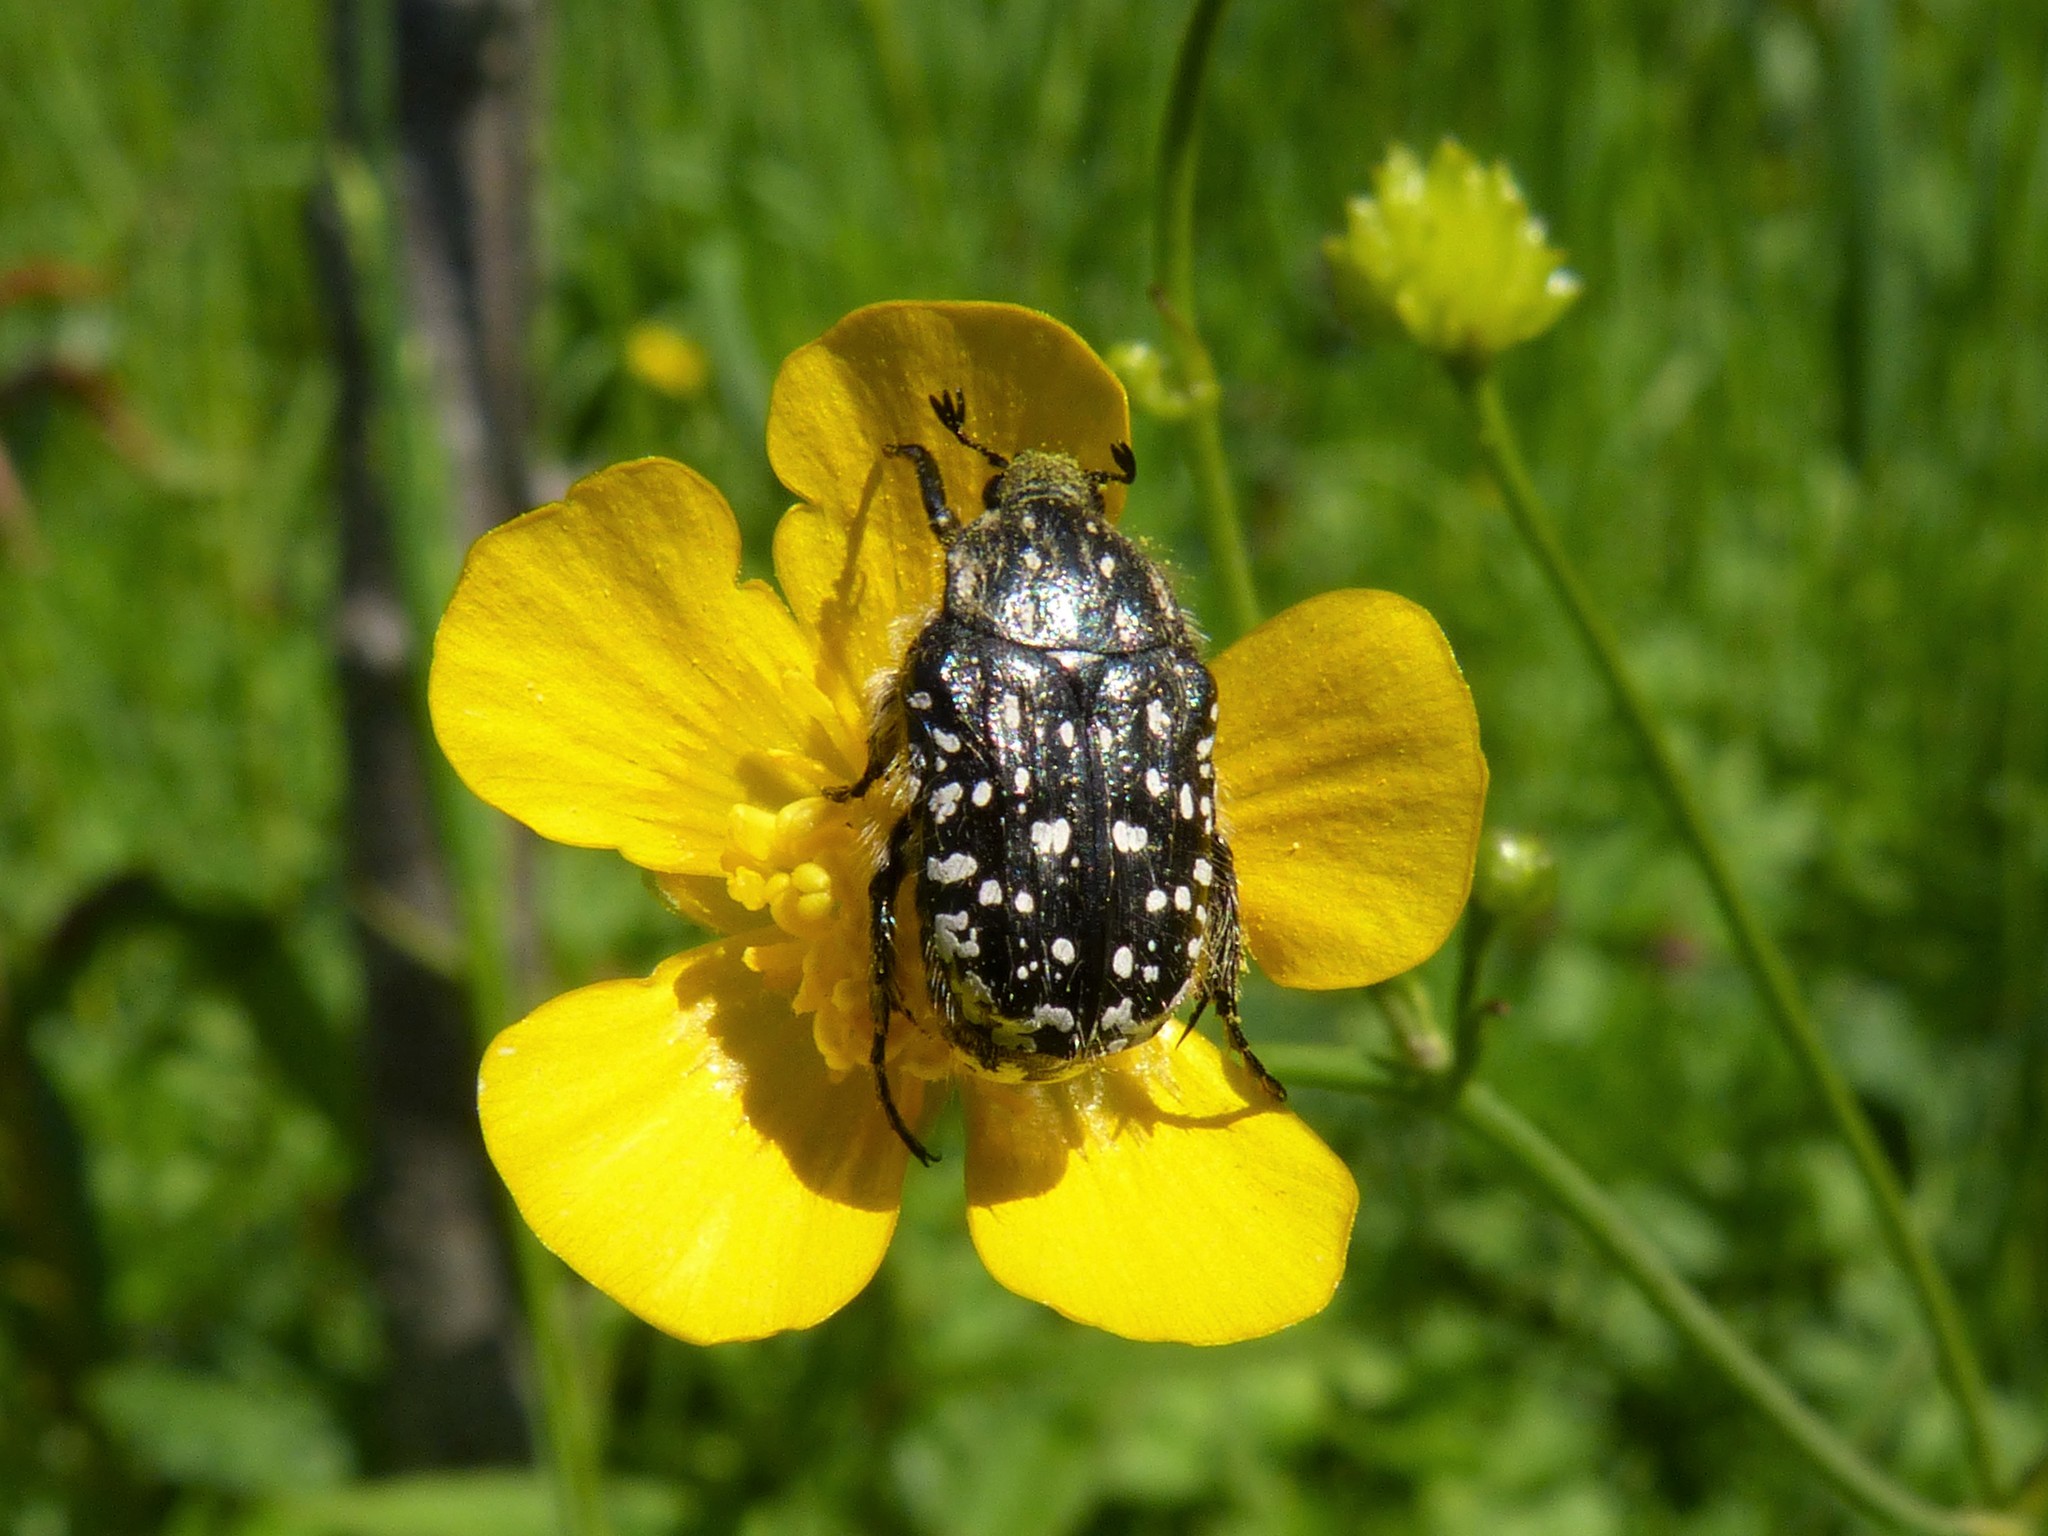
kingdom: Animalia
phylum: Arthropoda
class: Insecta
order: Coleoptera
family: Scarabaeidae
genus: Oxythyrea
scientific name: Oxythyrea funesta
